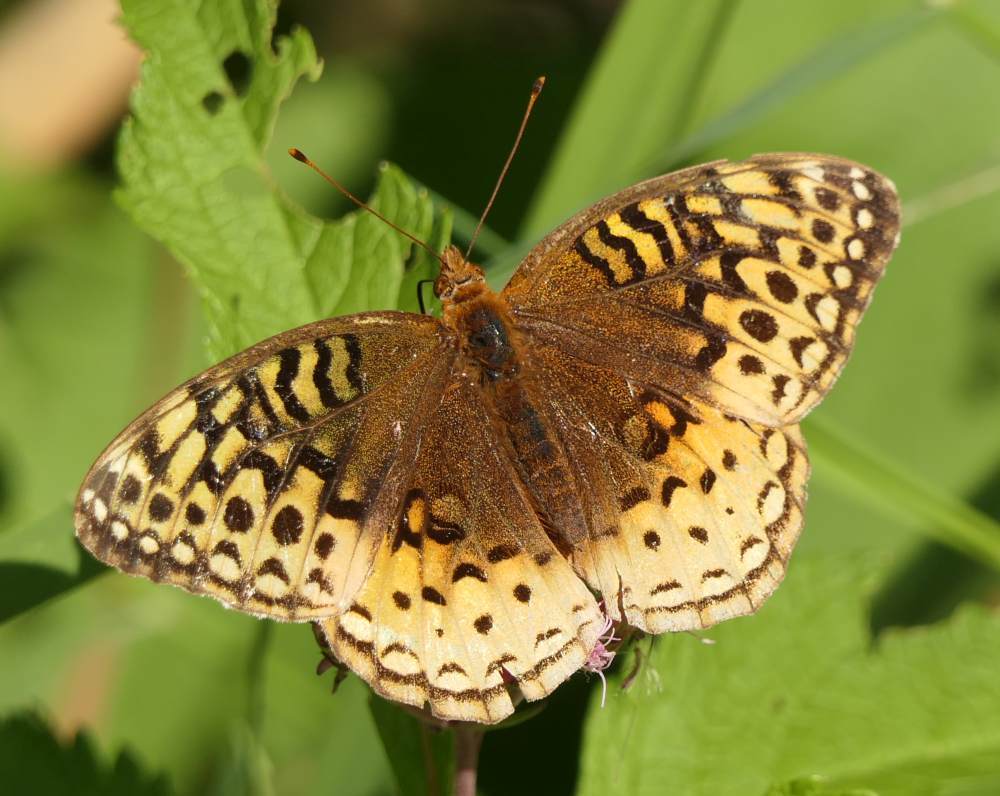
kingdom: Animalia
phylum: Arthropoda
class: Insecta
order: Lepidoptera
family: Nymphalidae
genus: Speyeria
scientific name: Speyeria cybele
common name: Great spangled fritillary
